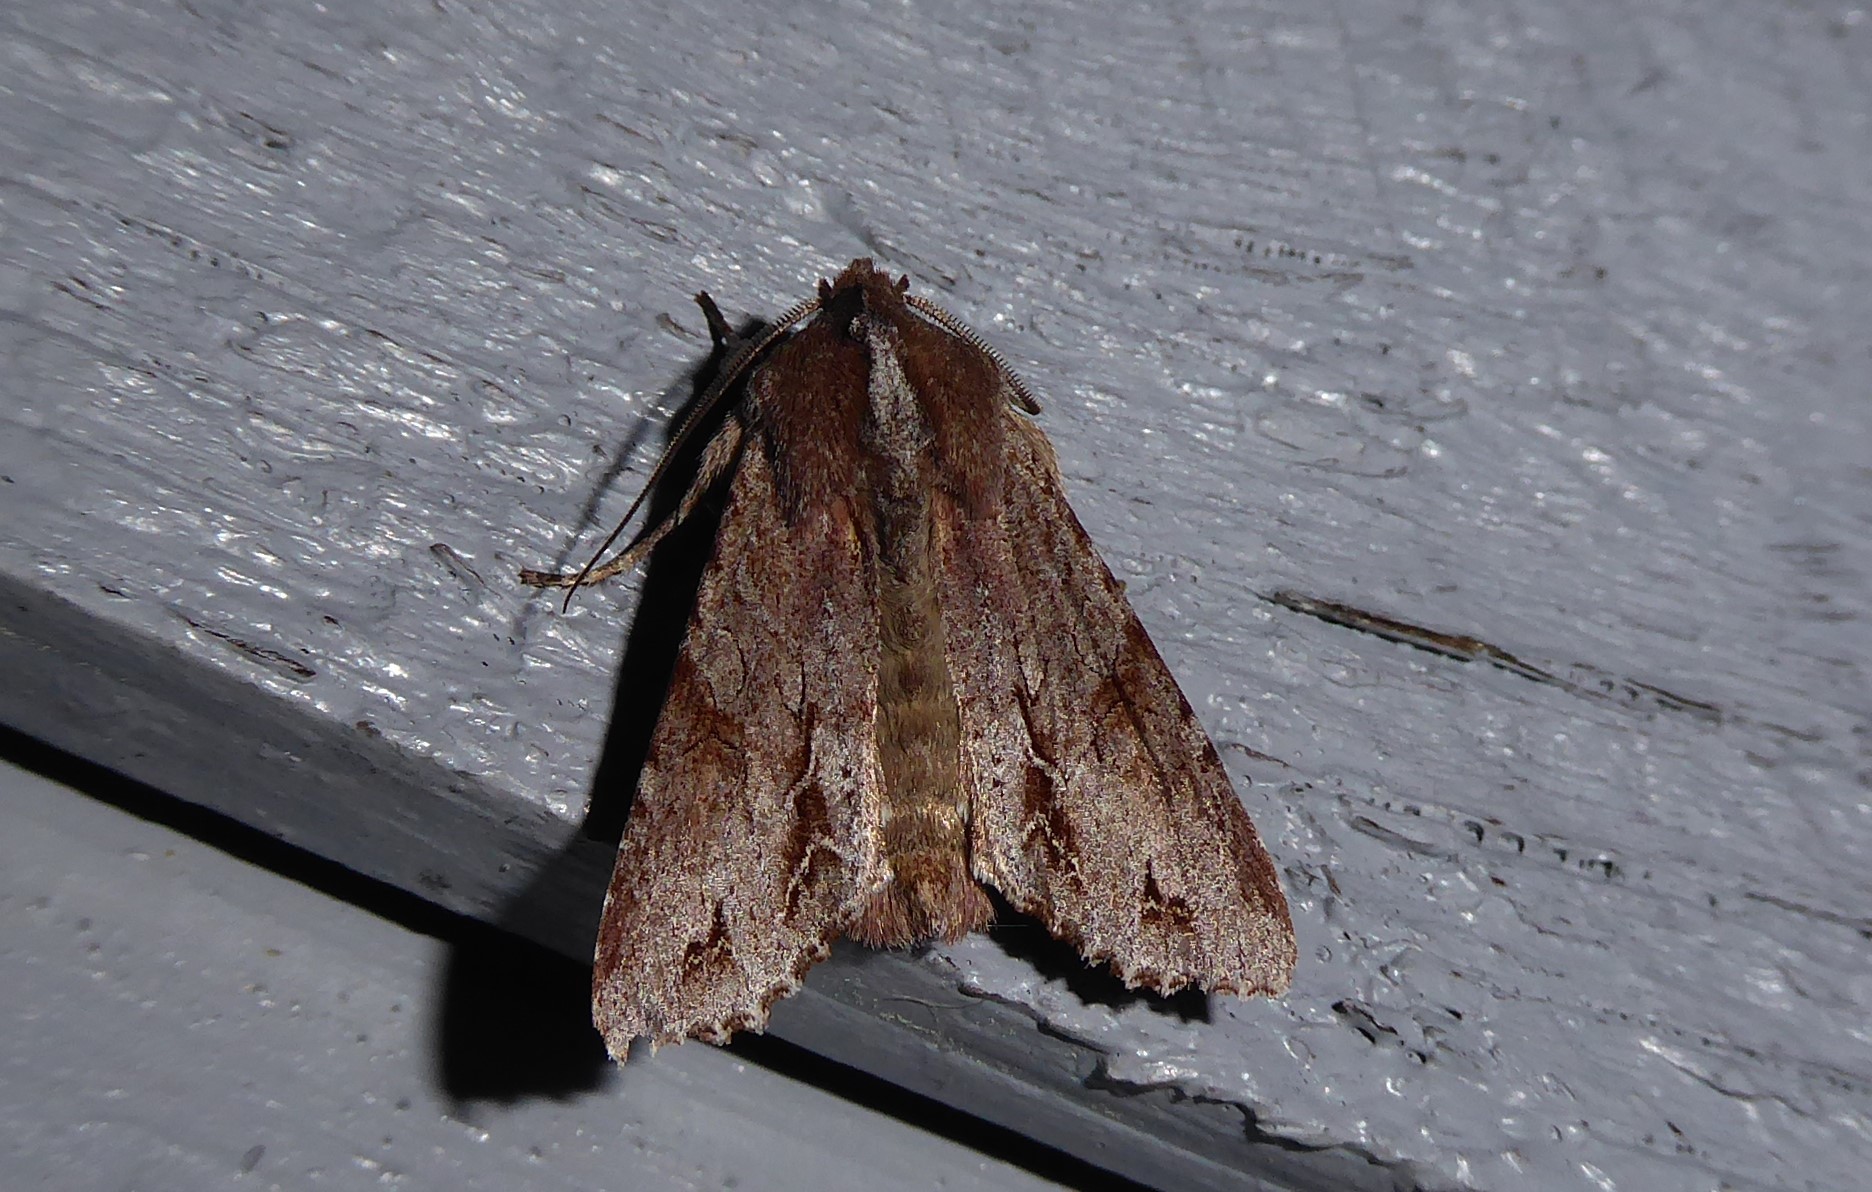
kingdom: Animalia
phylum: Arthropoda
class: Insecta
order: Lepidoptera
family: Noctuidae
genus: Ichneutica
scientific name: Ichneutica
